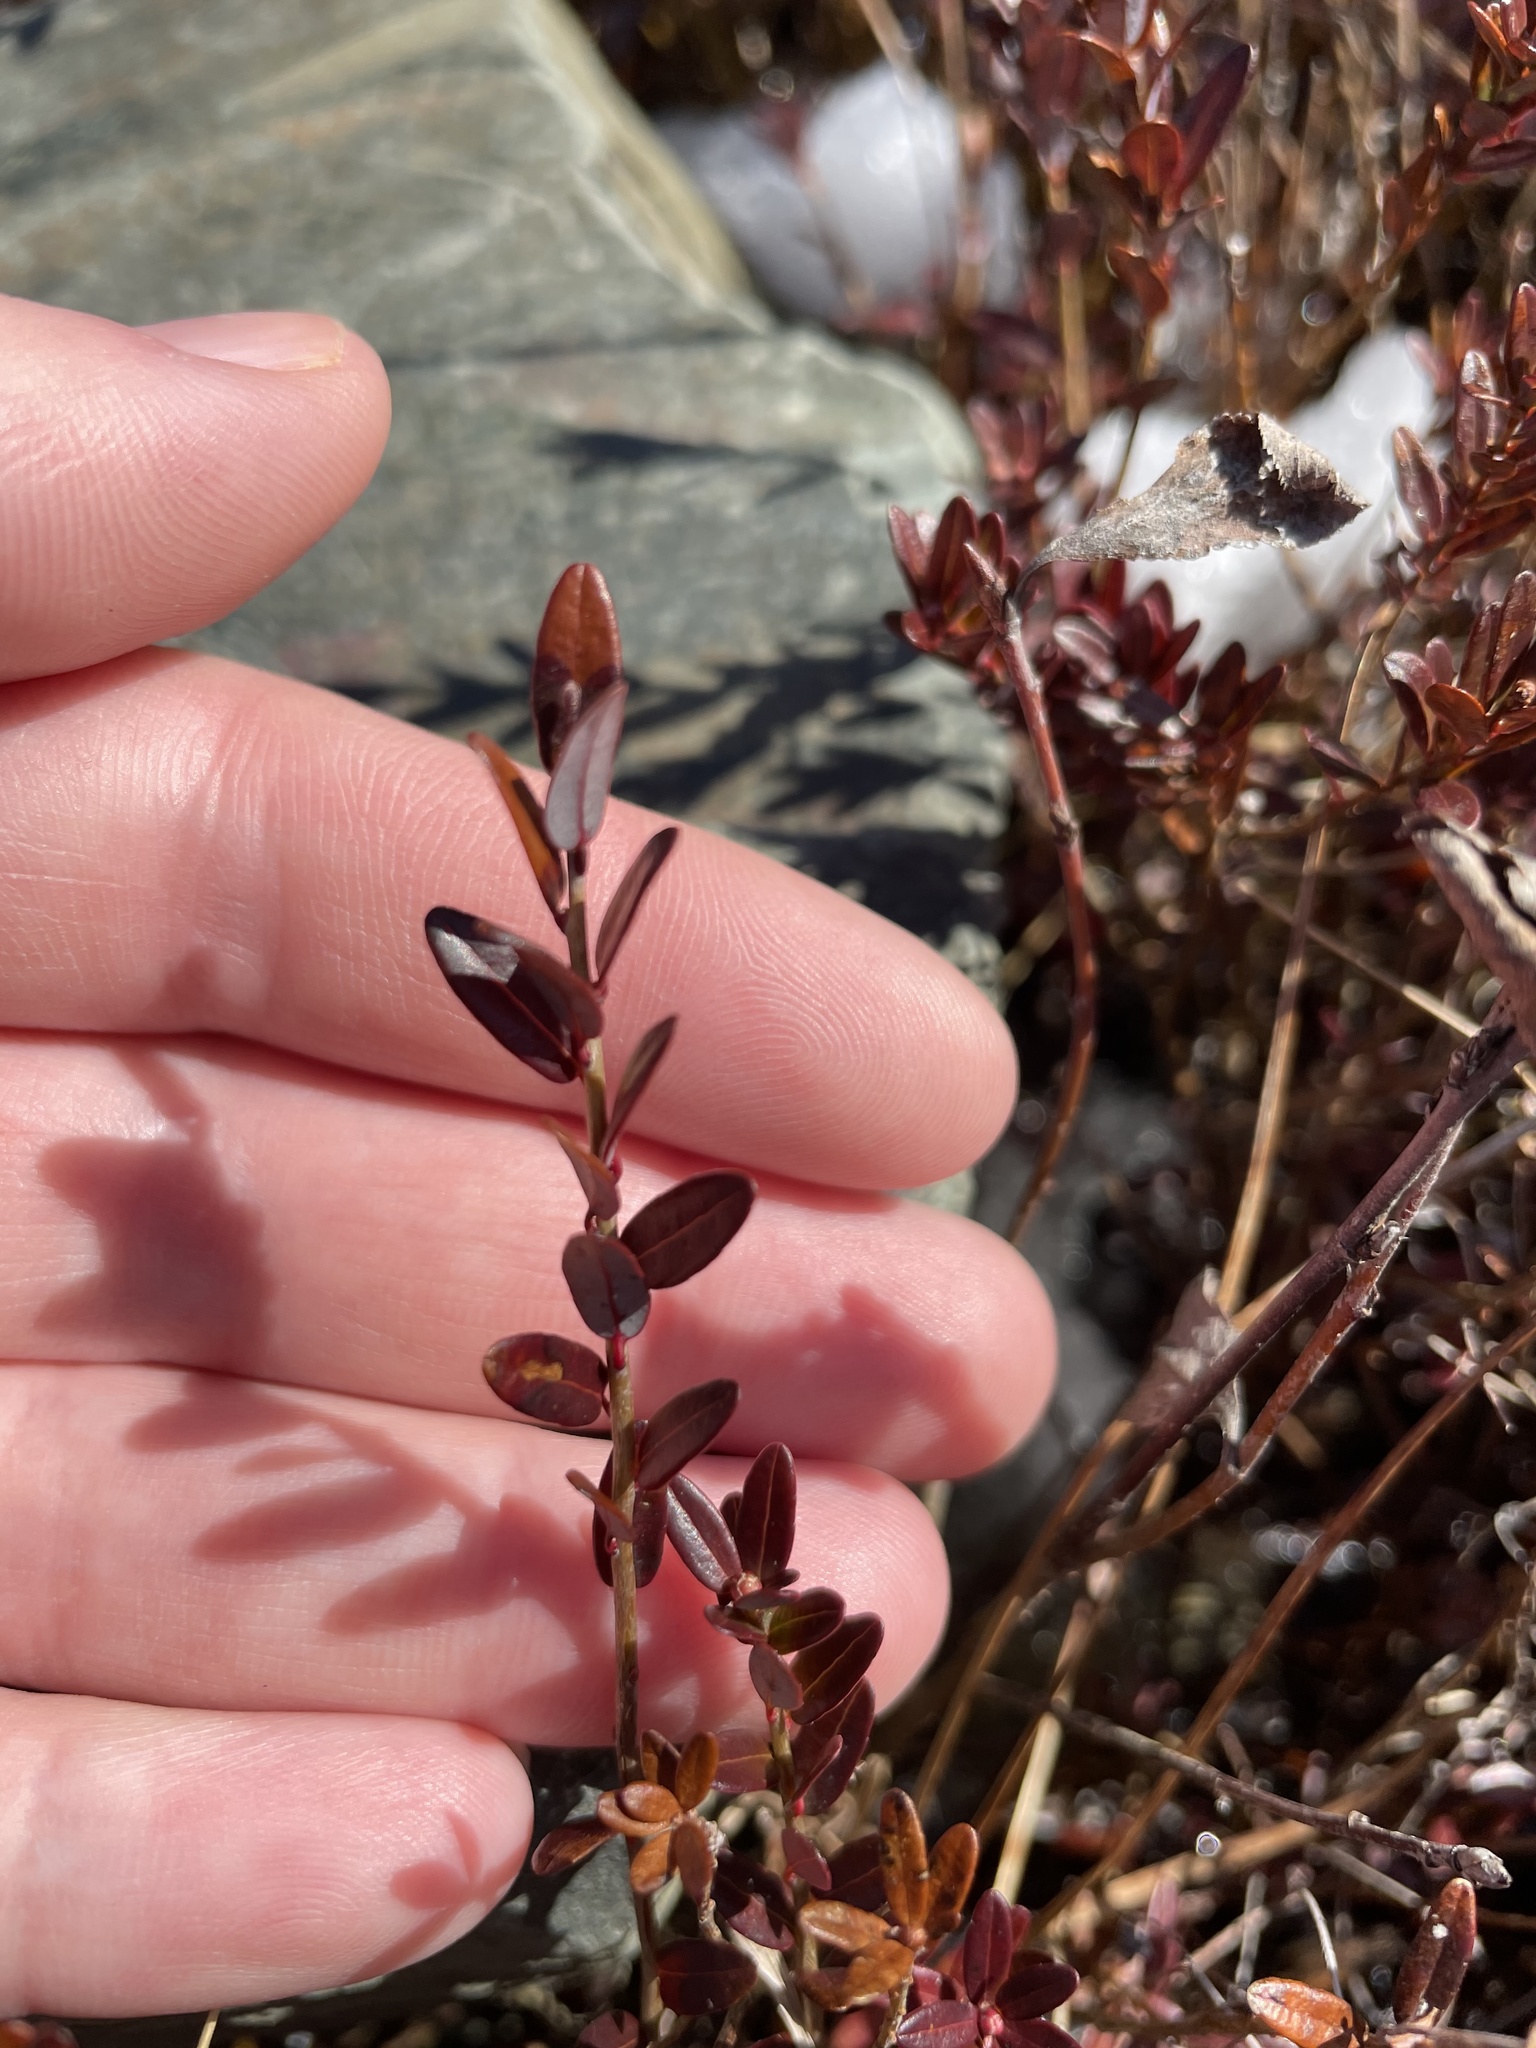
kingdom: Plantae
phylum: Tracheophyta
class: Magnoliopsida
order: Ericales
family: Ericaceae
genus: Vaccinium
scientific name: Vaccinium macrocarpon
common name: American cranberry
